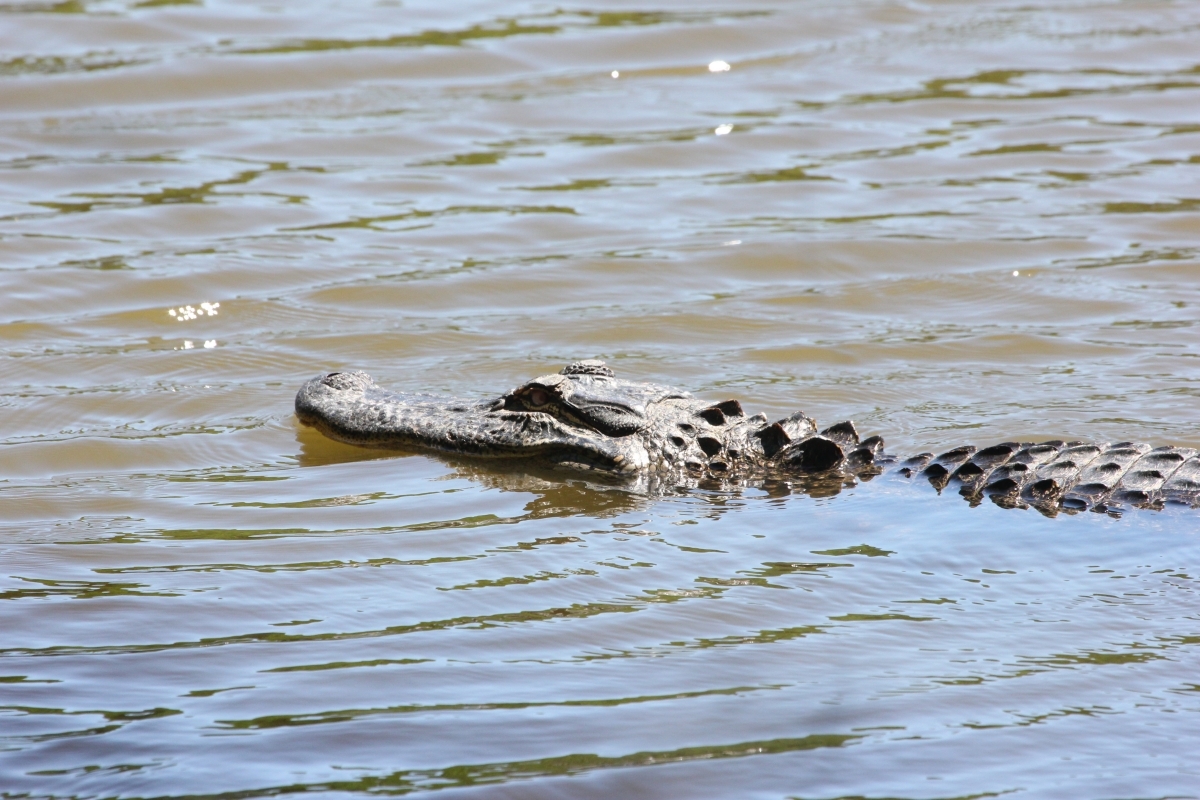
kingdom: Animalia
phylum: Chordata
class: Crocodylia
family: Alligatoridae
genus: Alligator
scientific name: Alligator mississippiensis
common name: American alligator
